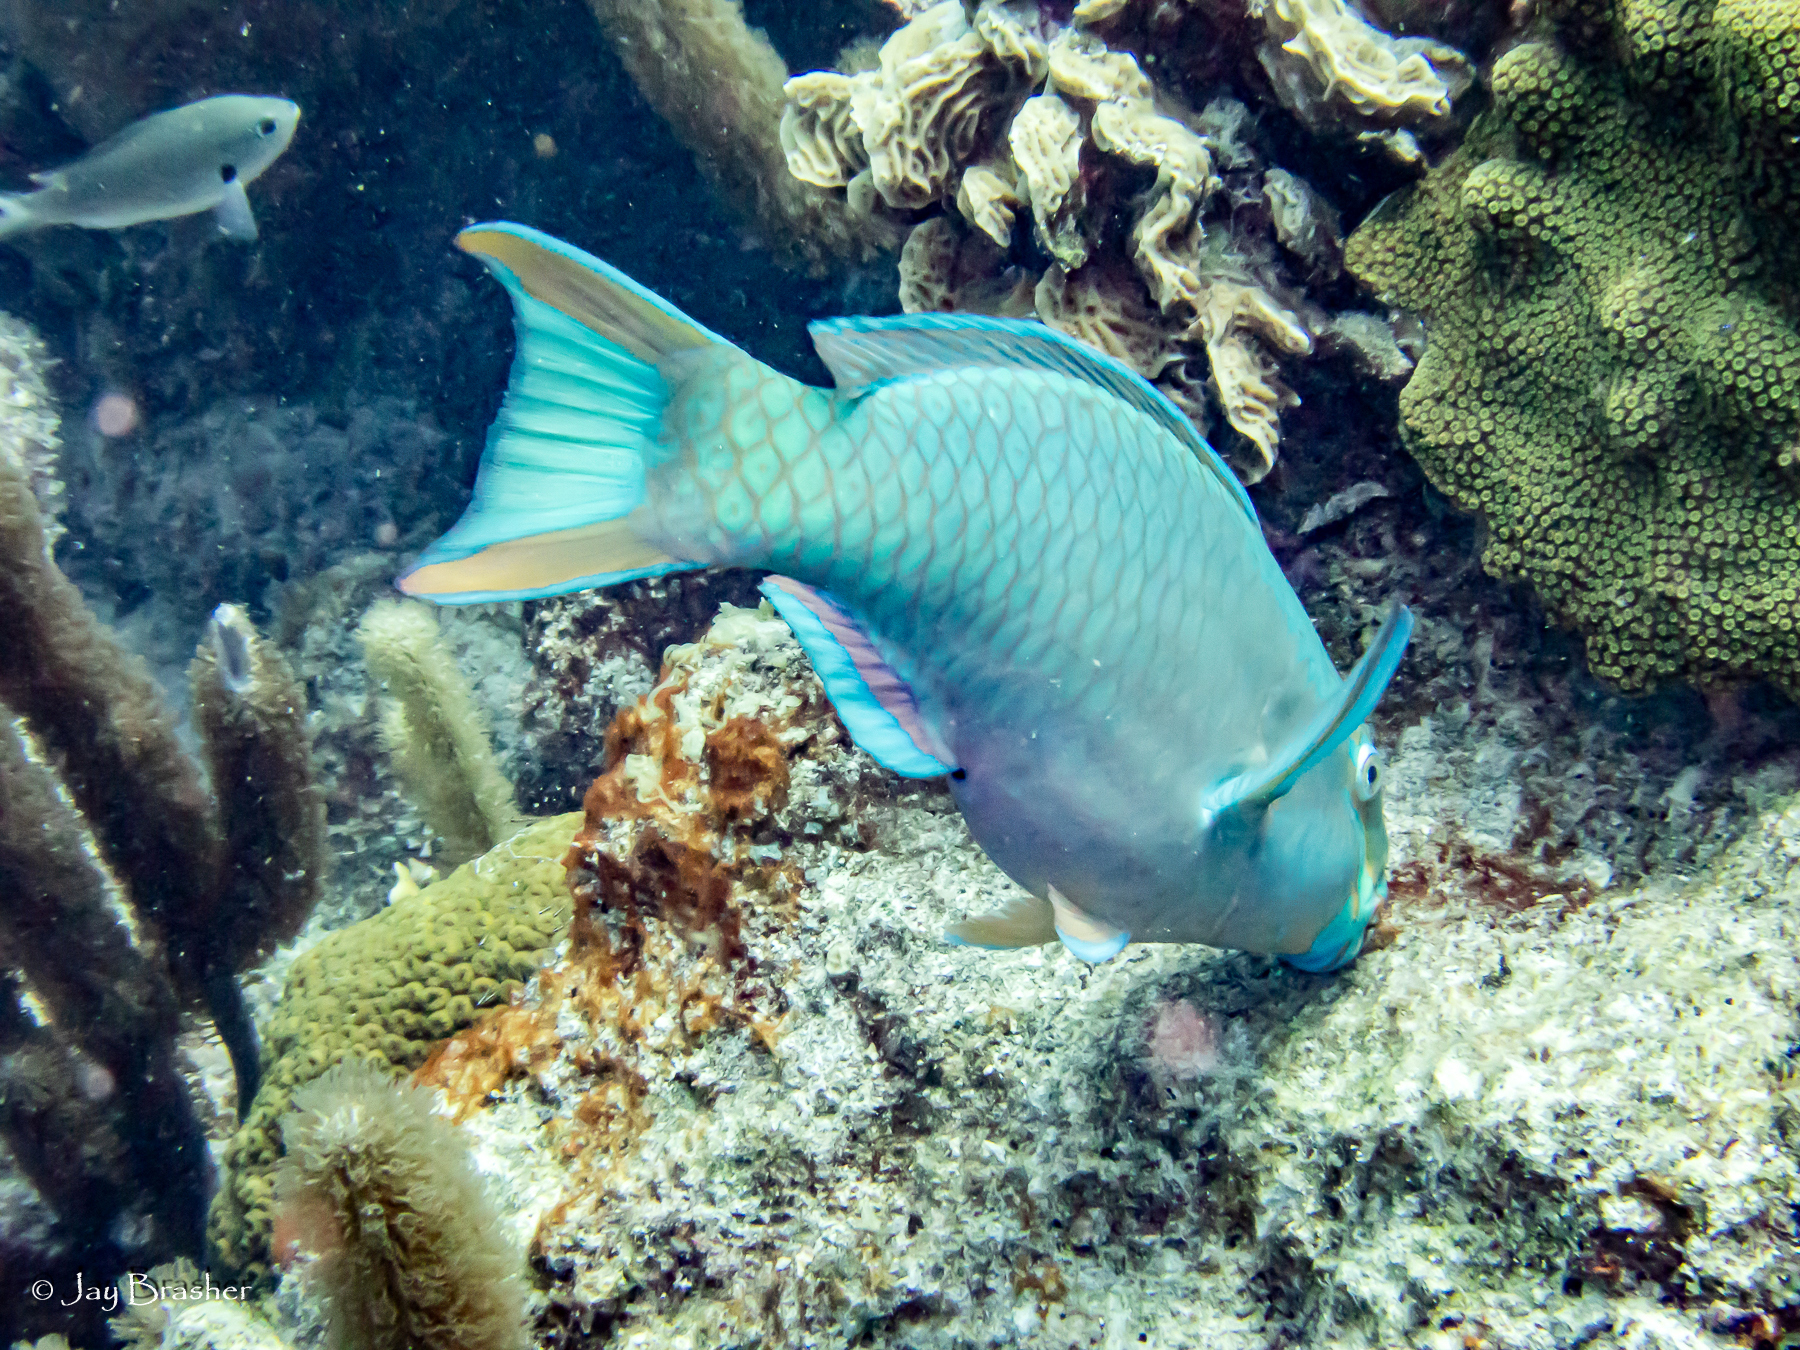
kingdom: Animalia
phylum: Chordata
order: Perciformes
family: Scaridae
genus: Scarus
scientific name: Scarus vetula
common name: Queen parrotfish
